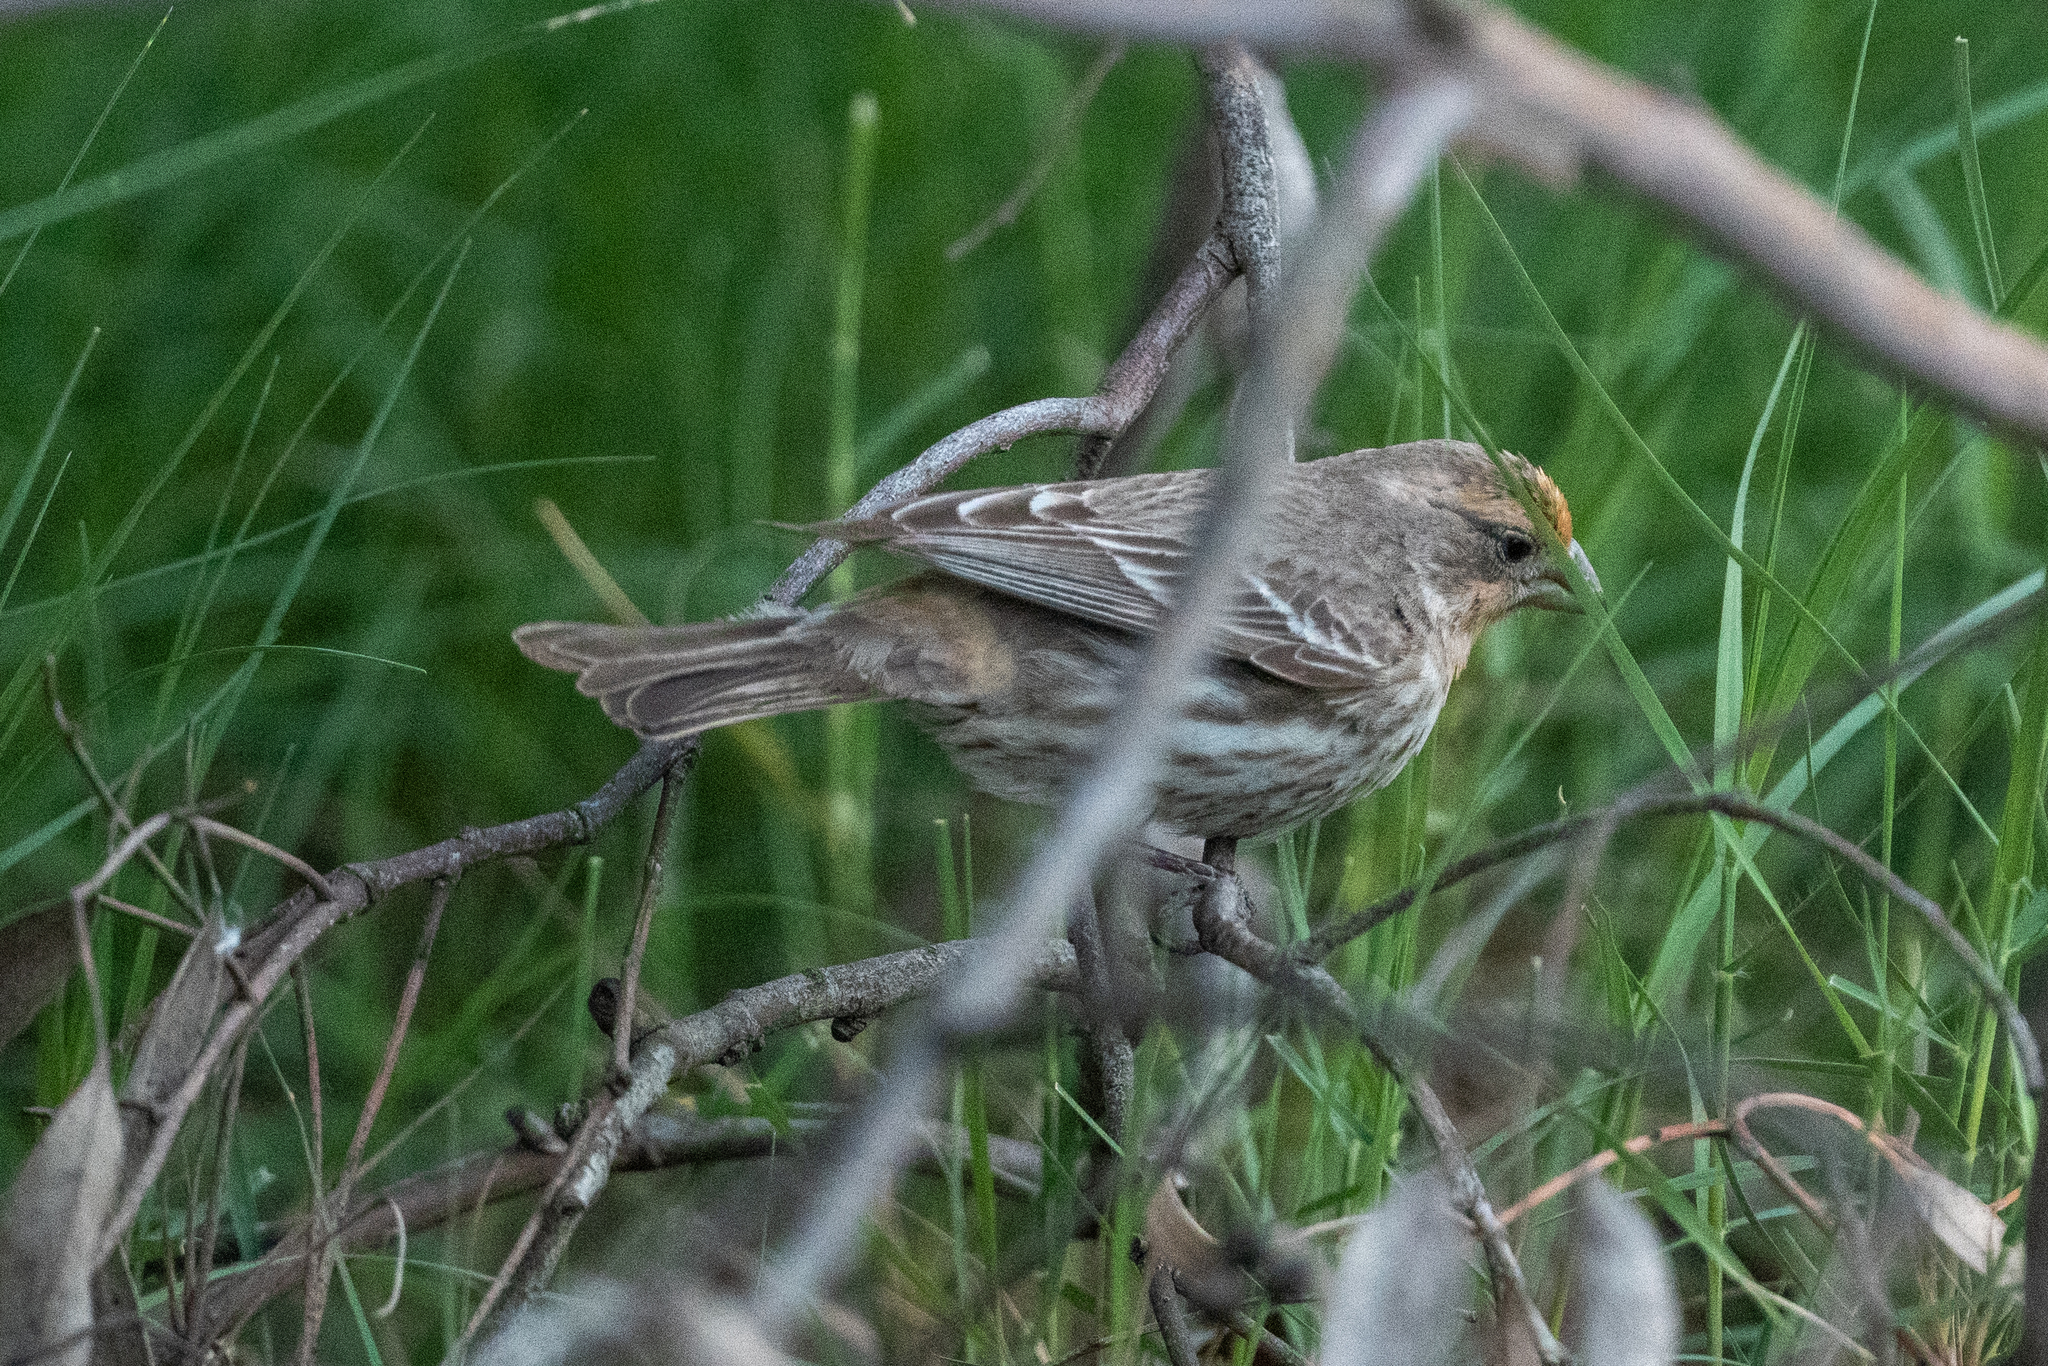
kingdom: Animalia
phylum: Chordata
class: Aves
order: Passeriformes
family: Fringillidae
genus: Haemorhous
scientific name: Haemorhous mexicanus
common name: House finch
